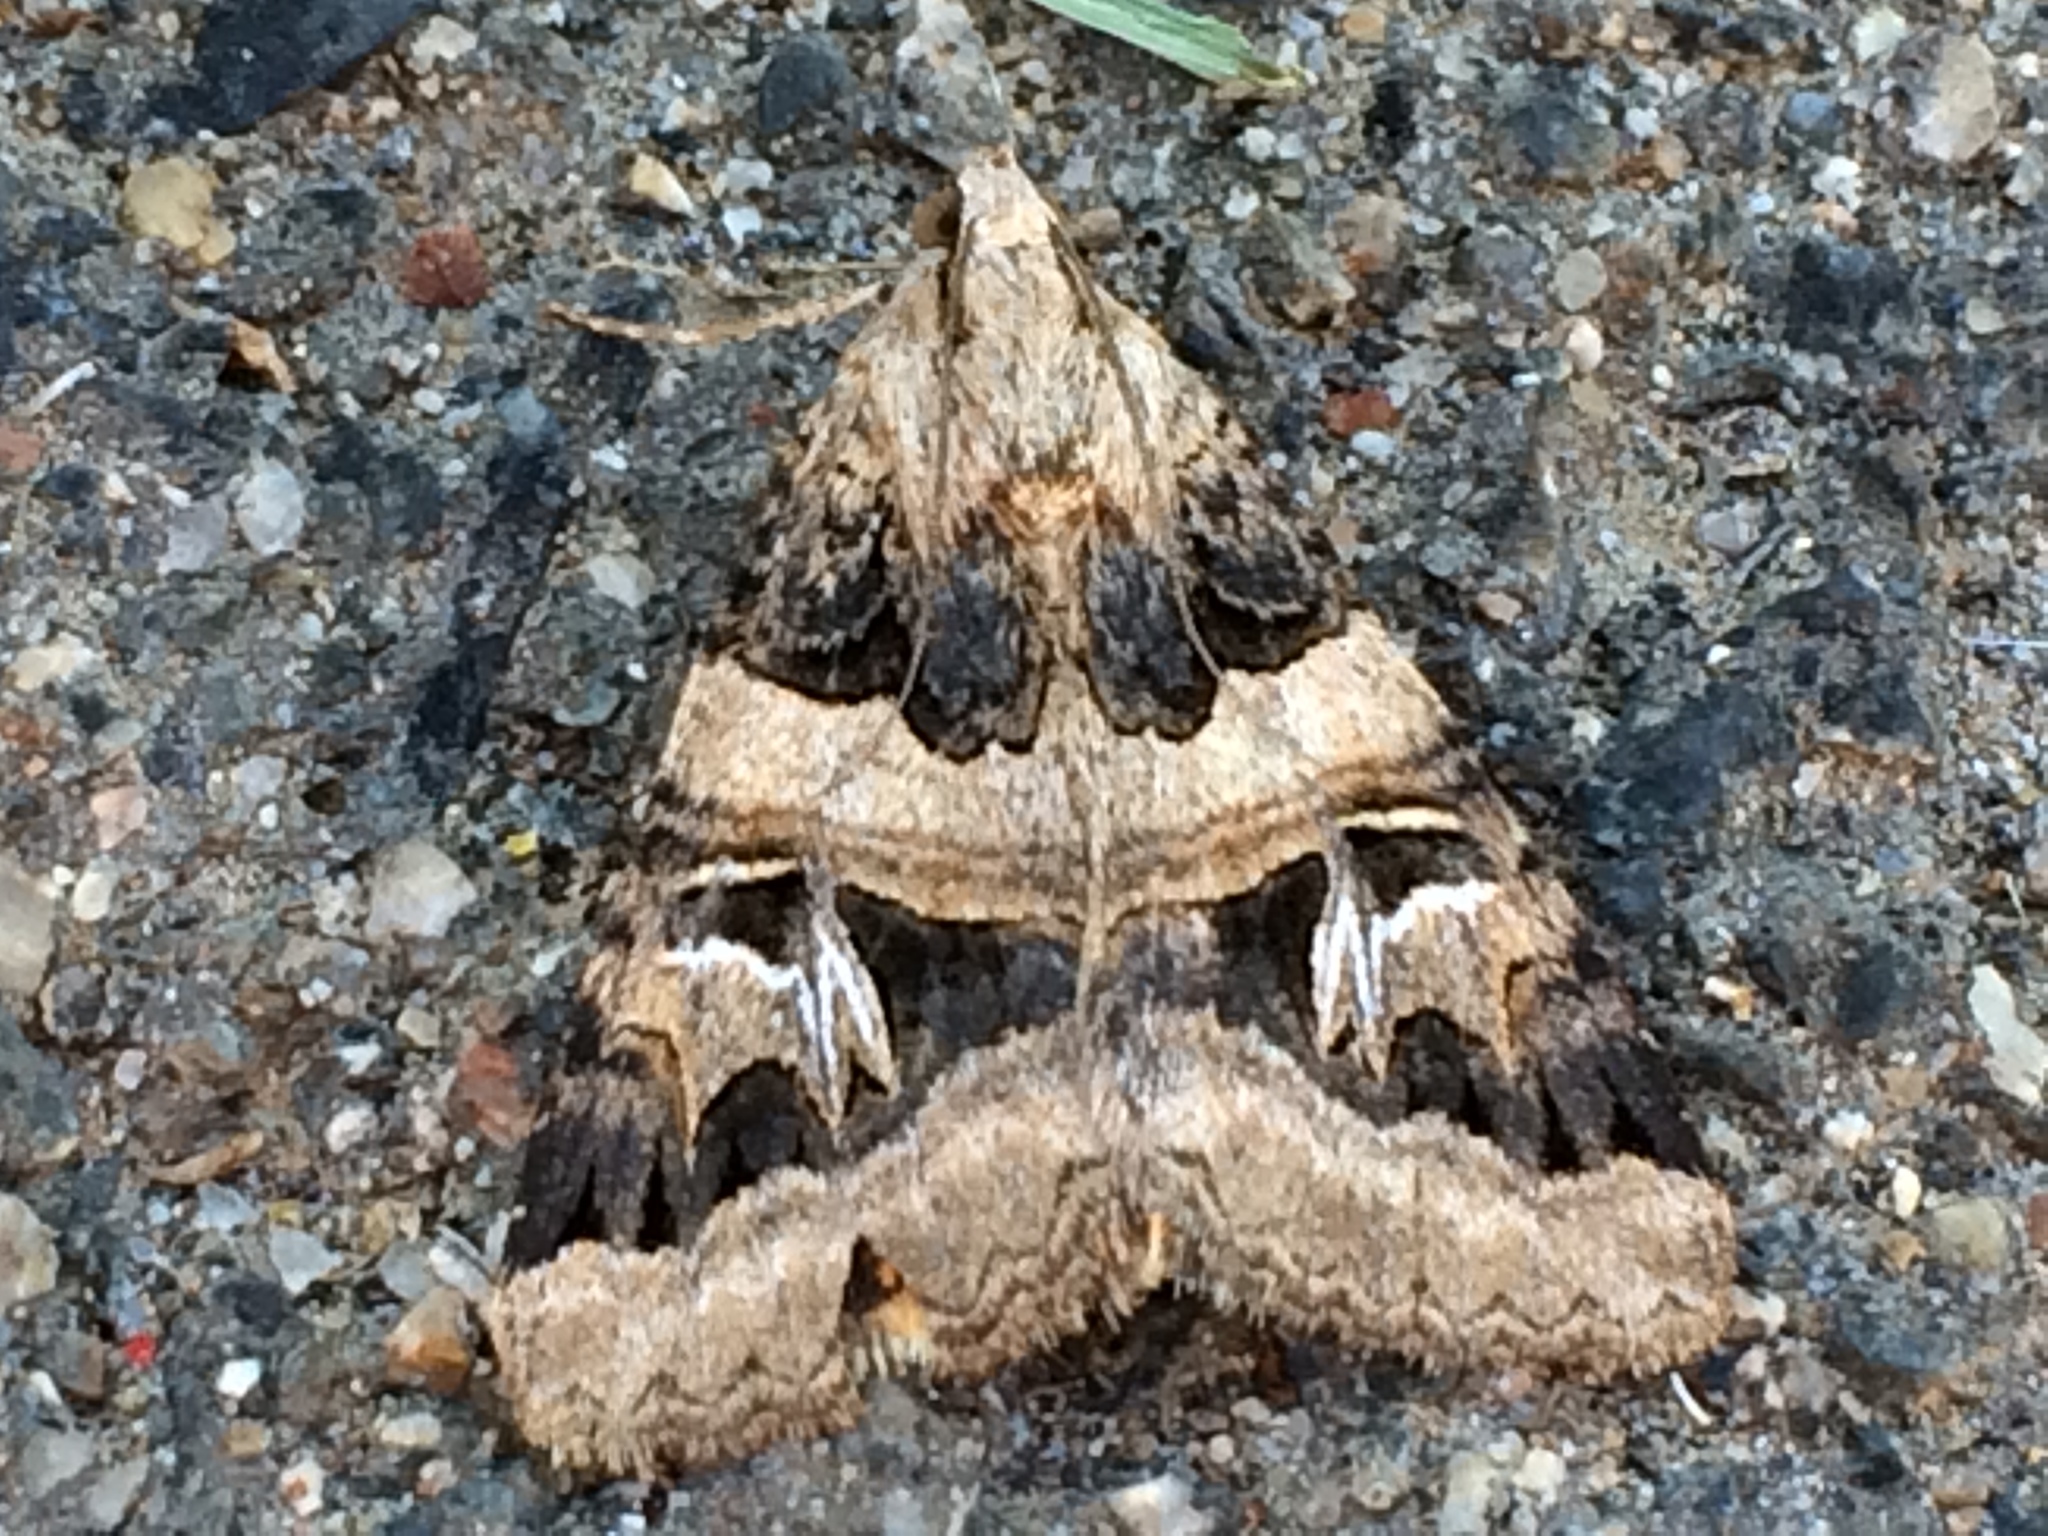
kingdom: Animalia
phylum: Arthropoda
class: Insecta
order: Lepidoptera
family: Erebidae
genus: Drasteria
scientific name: Drasteria divergens
